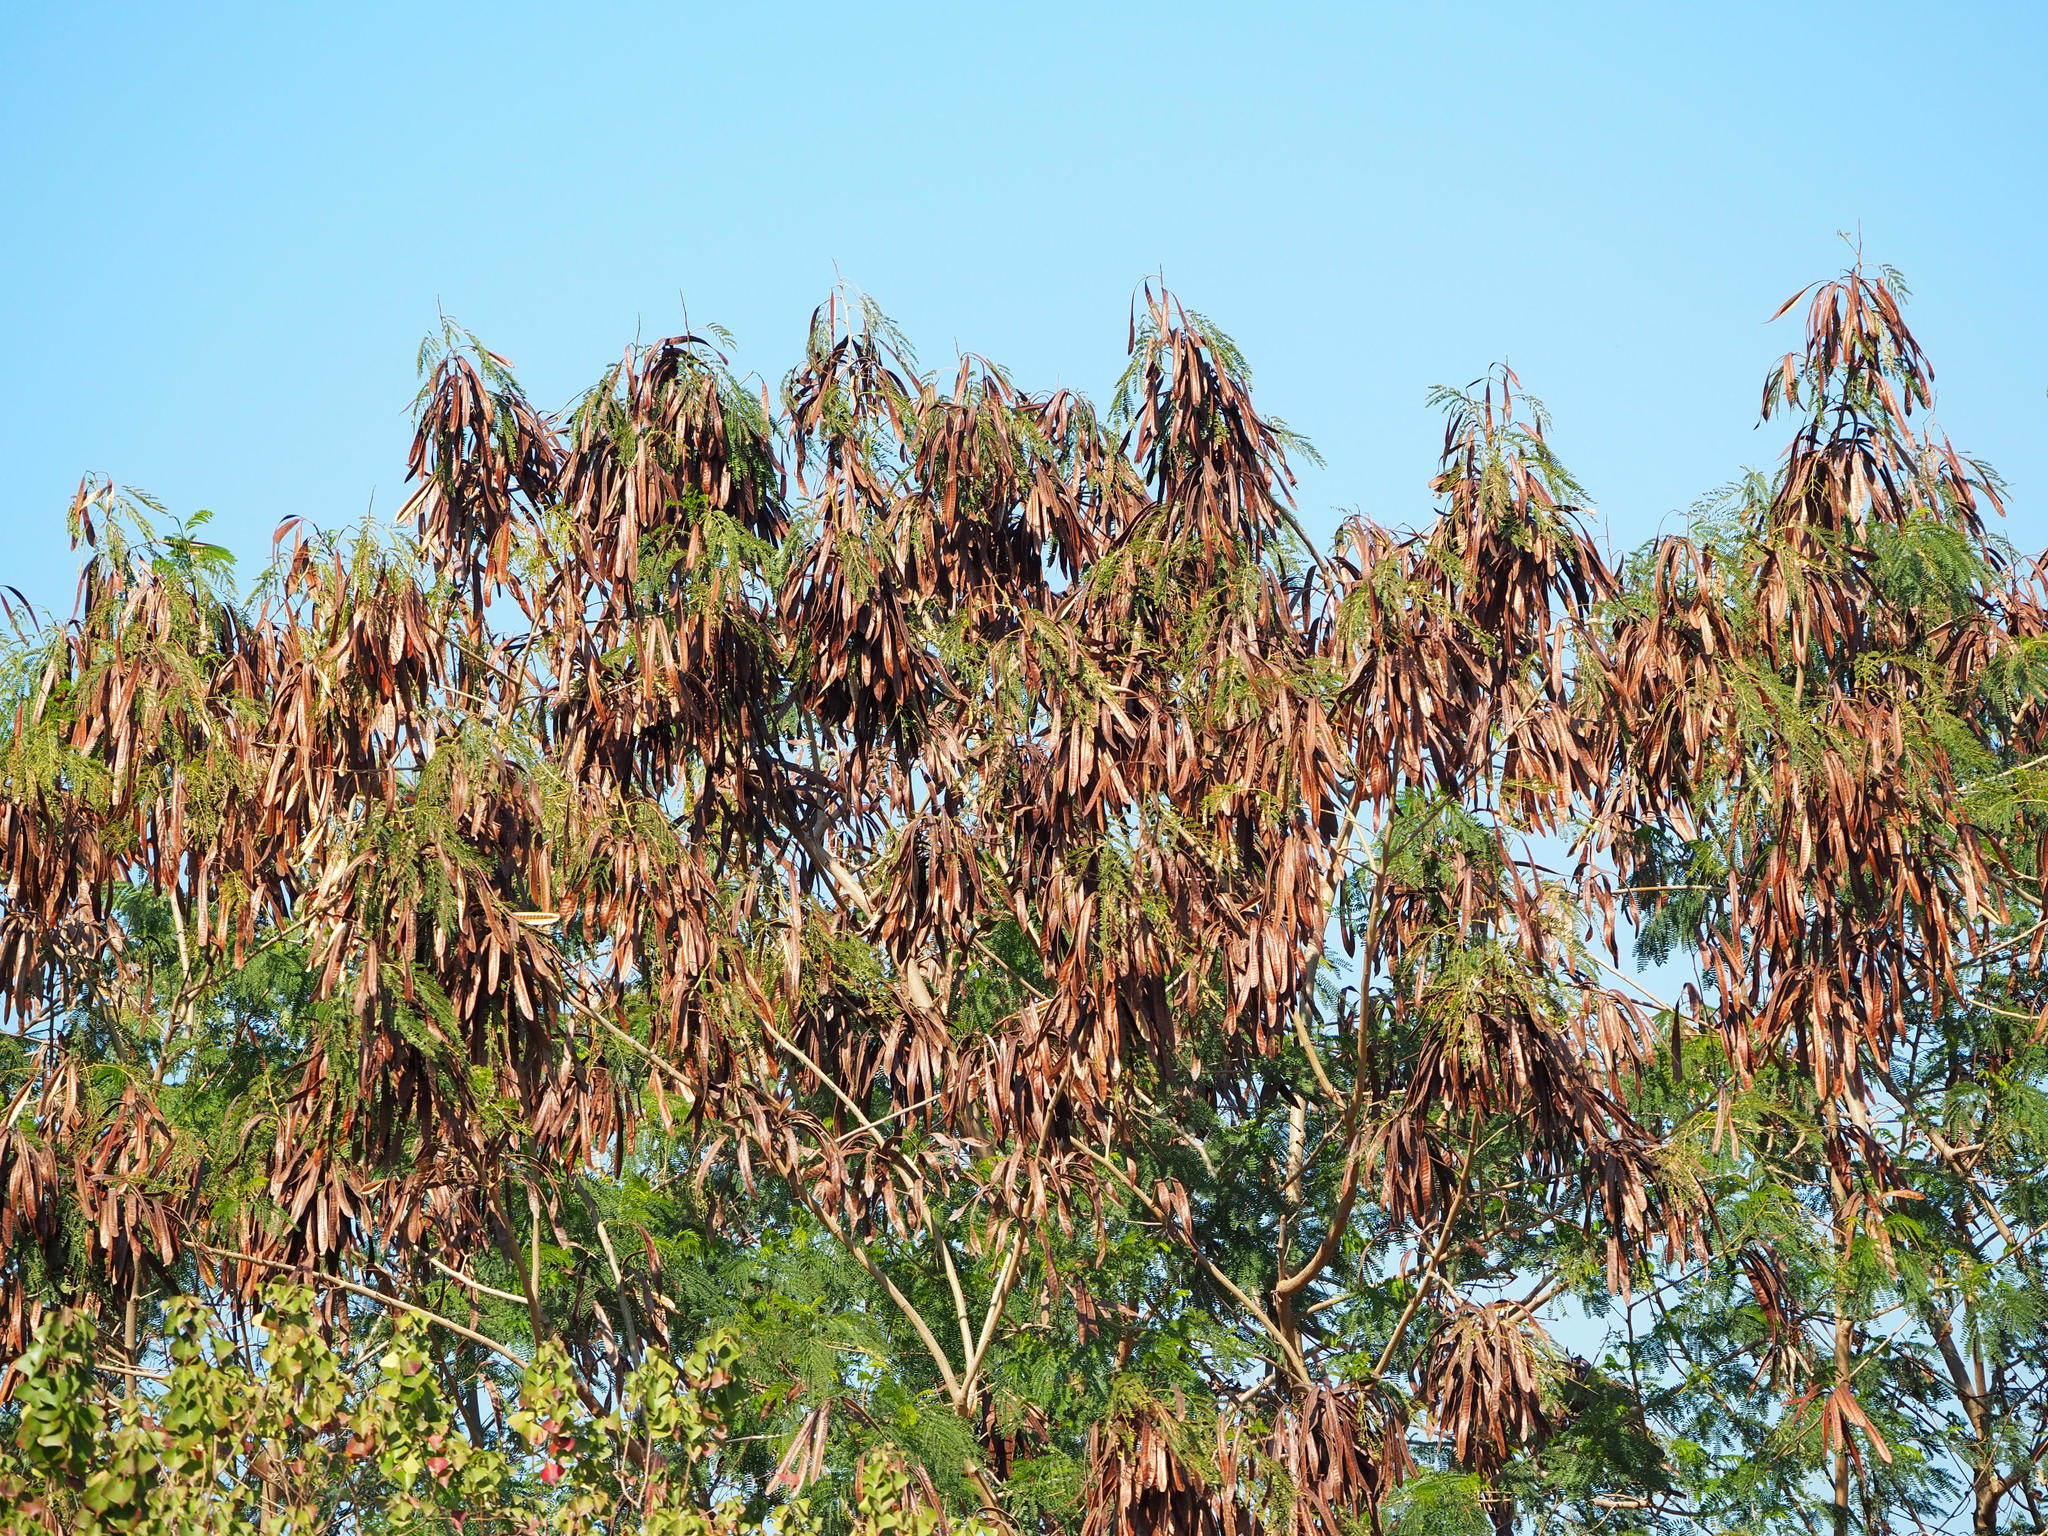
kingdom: Plantae
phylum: Tracheophyta
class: Magnoliopsida
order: Fabales
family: Fabaceae
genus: Leucaena
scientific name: Leucaena leucocephala
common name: White leadtree
